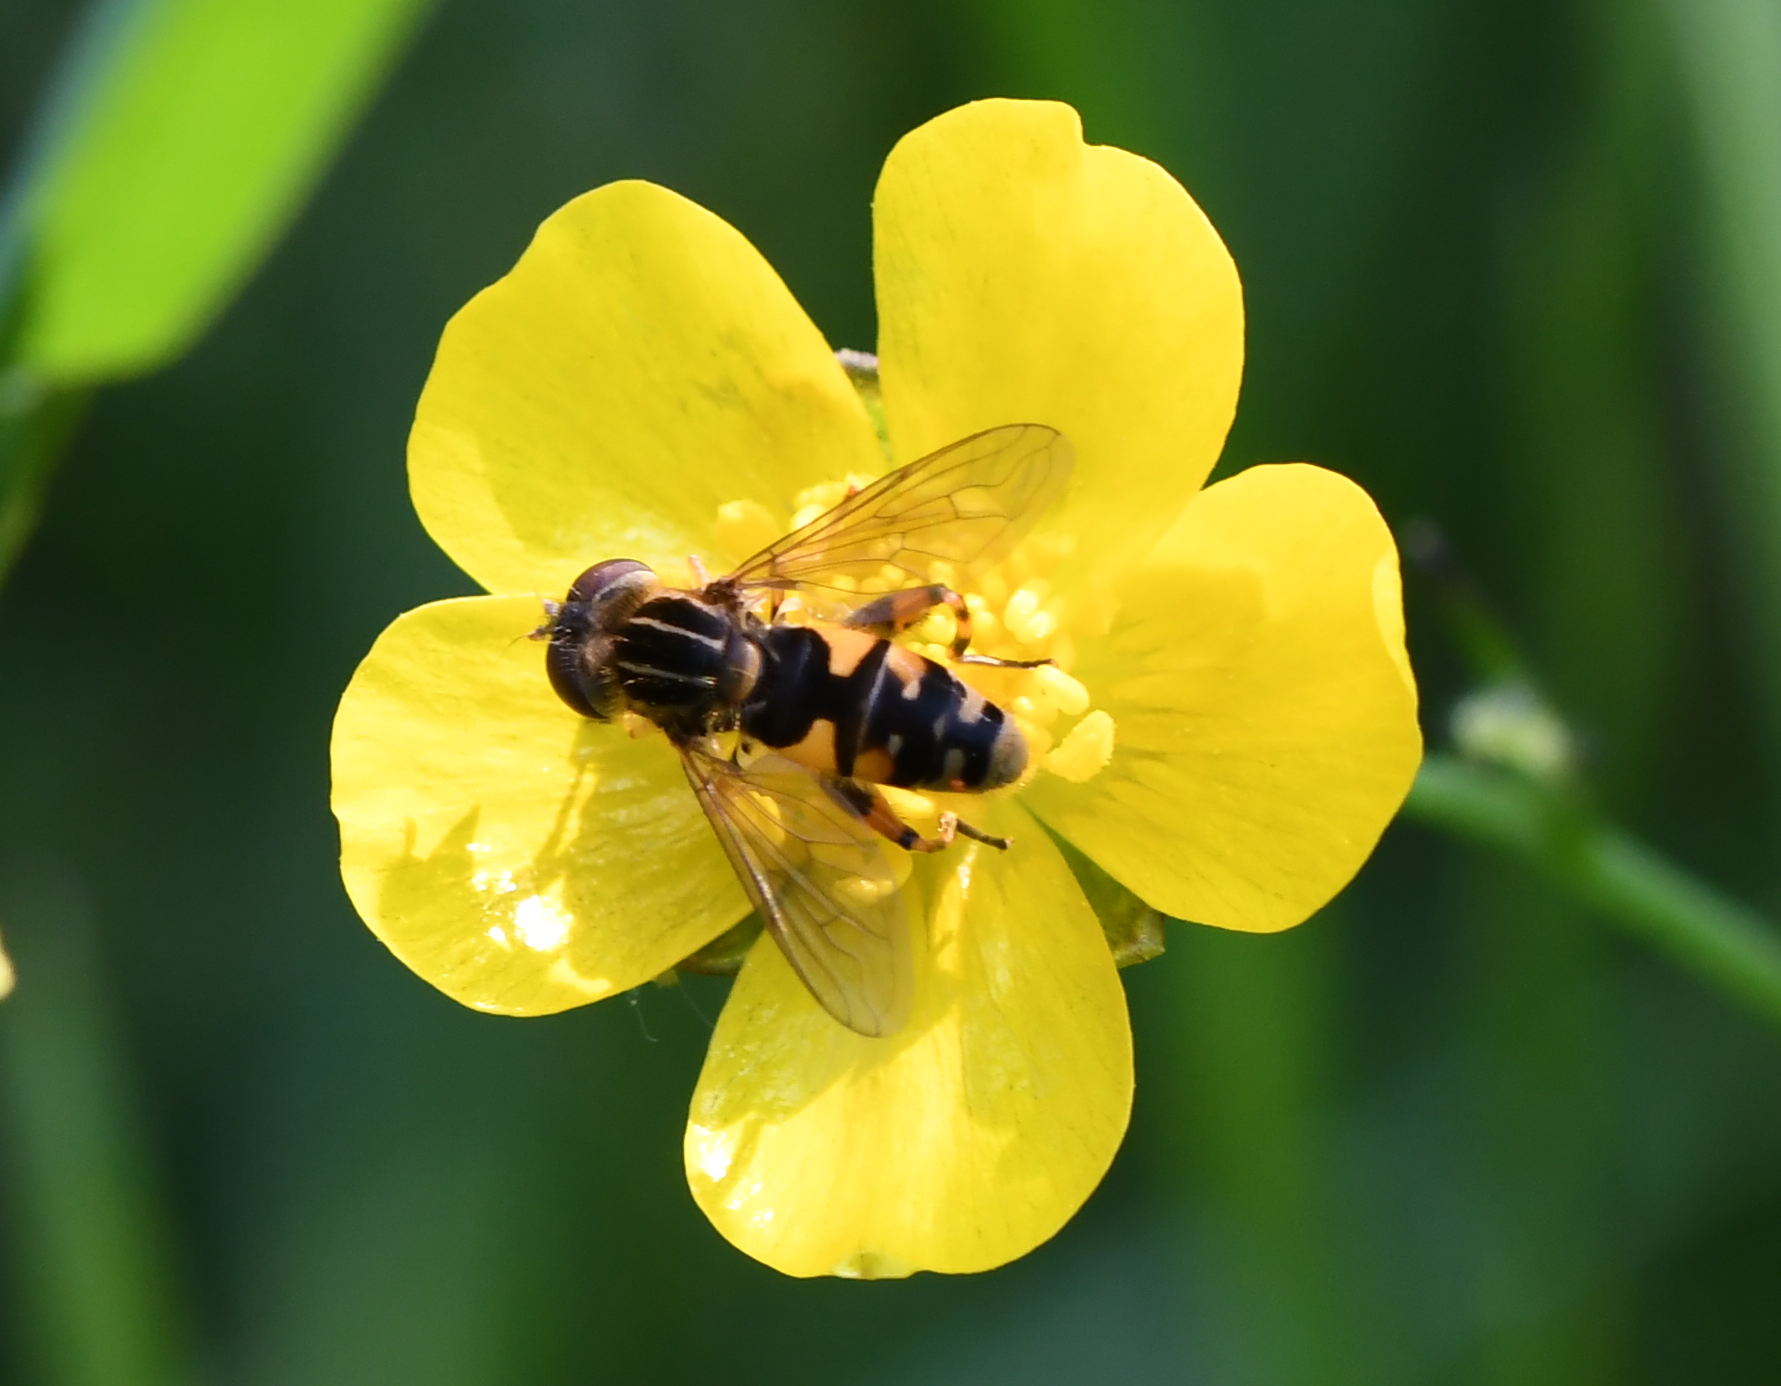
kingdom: Animalia
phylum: Arthropoda
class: Insecta
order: Diptera
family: Syrphidae
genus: Eurimyia
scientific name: Eurimyia lineatus
